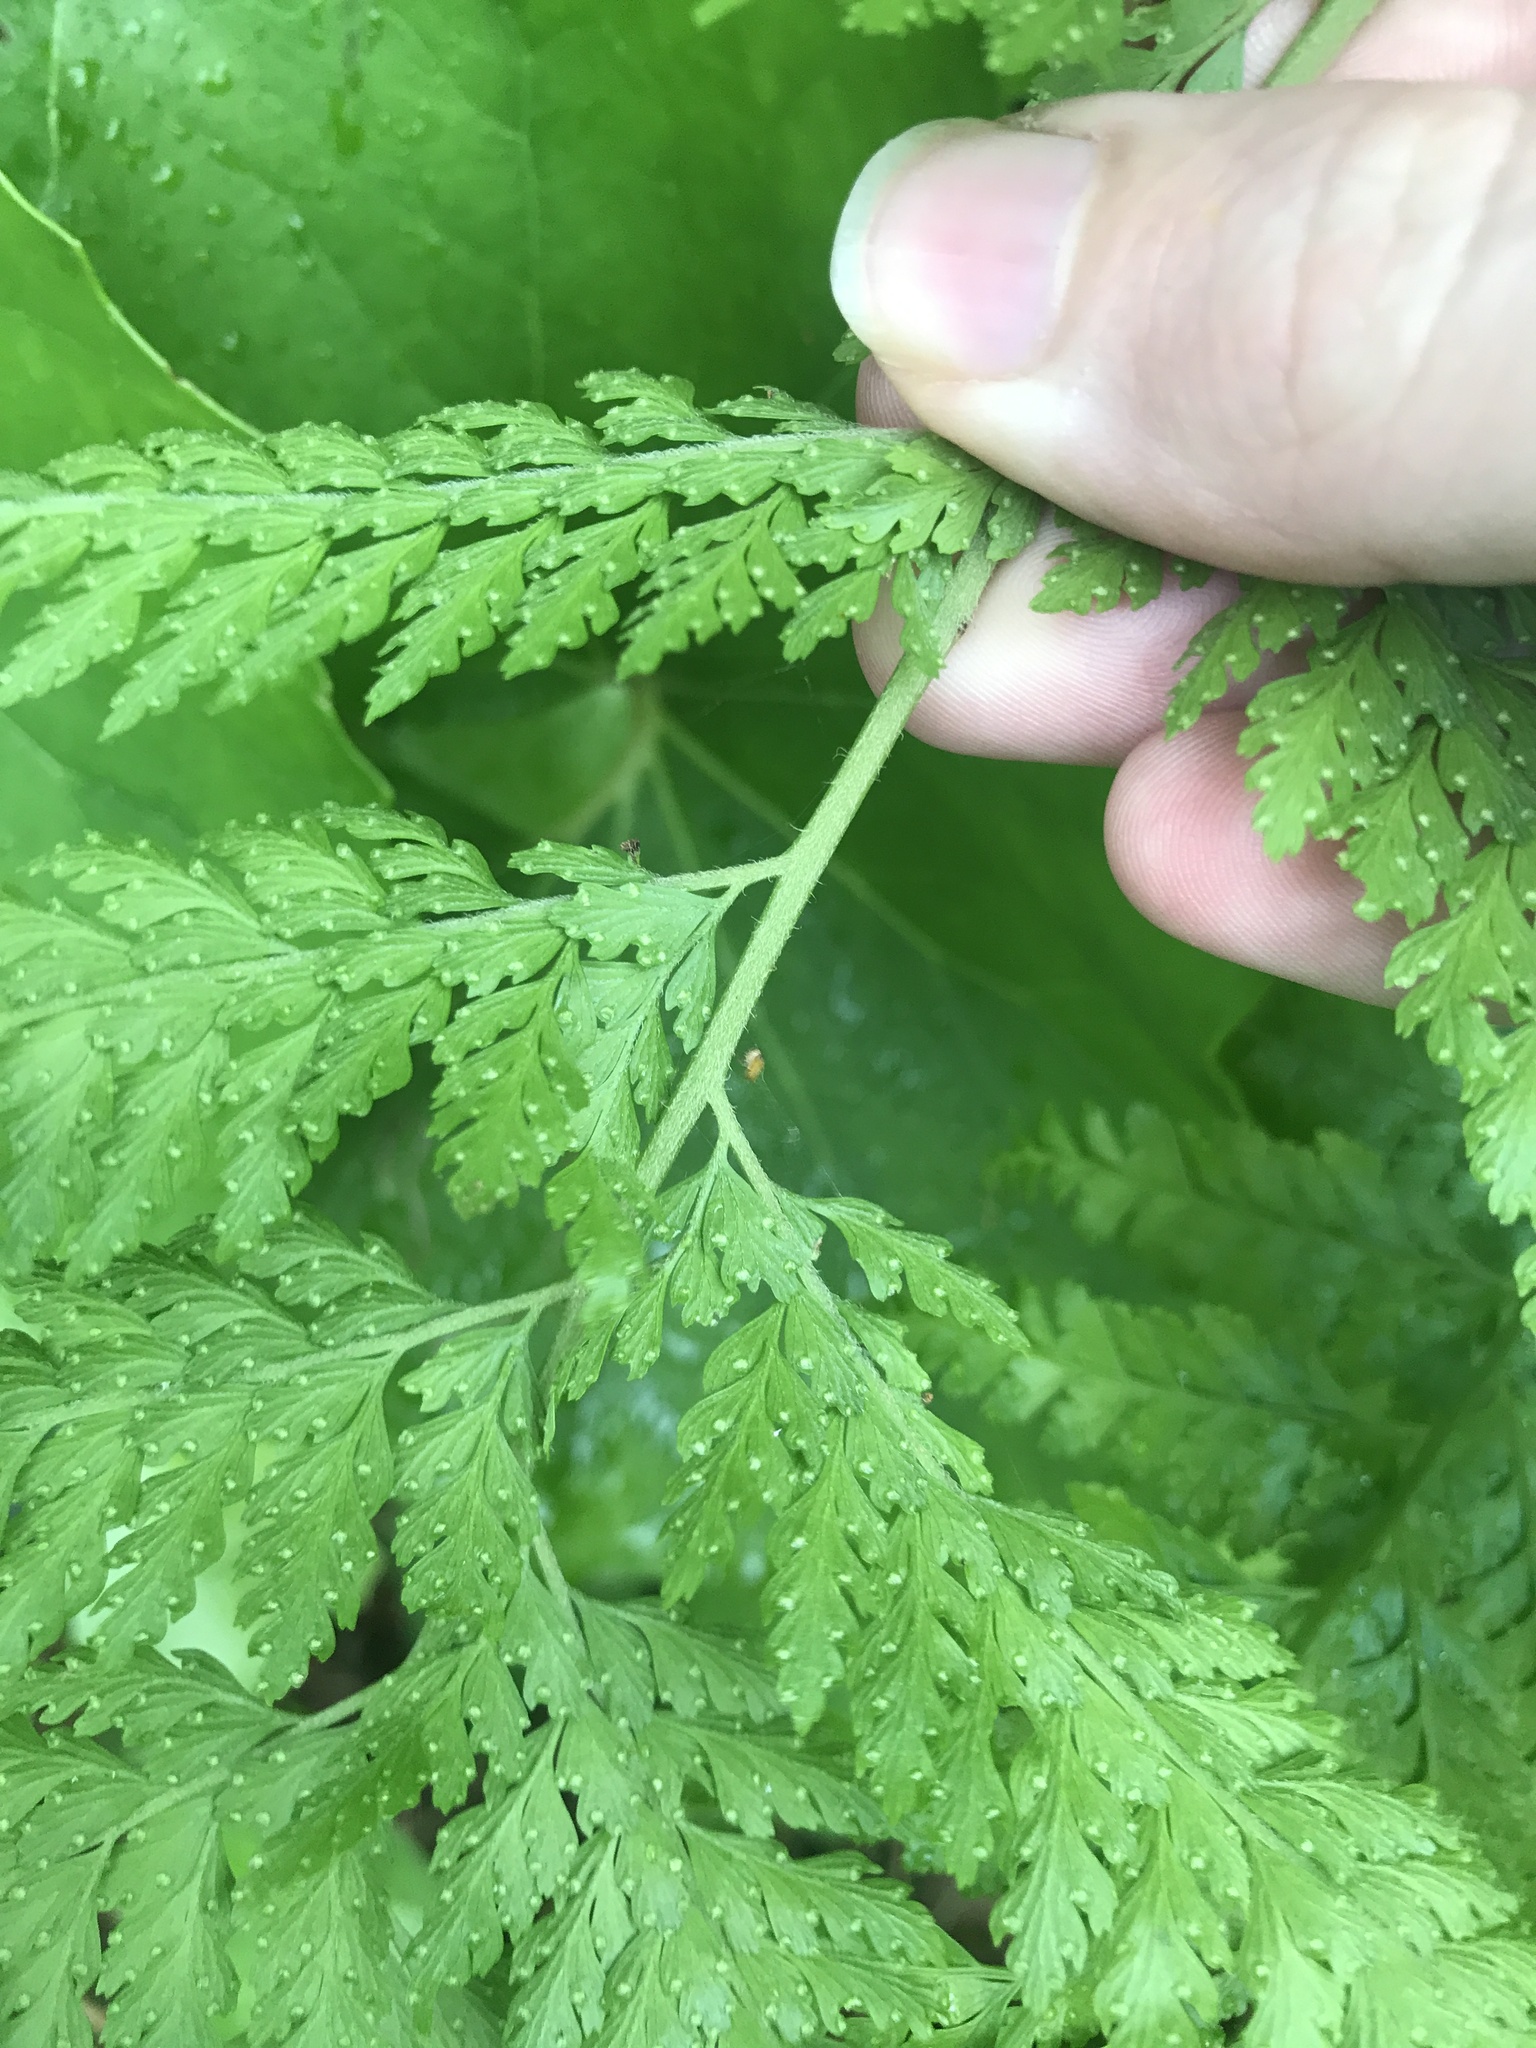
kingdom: Plantae
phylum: Tracheophyta
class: Polypodiopsida
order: Polypodiales
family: Dennstaedtiaceae
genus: Microlepia
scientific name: Microlepia strigosa
